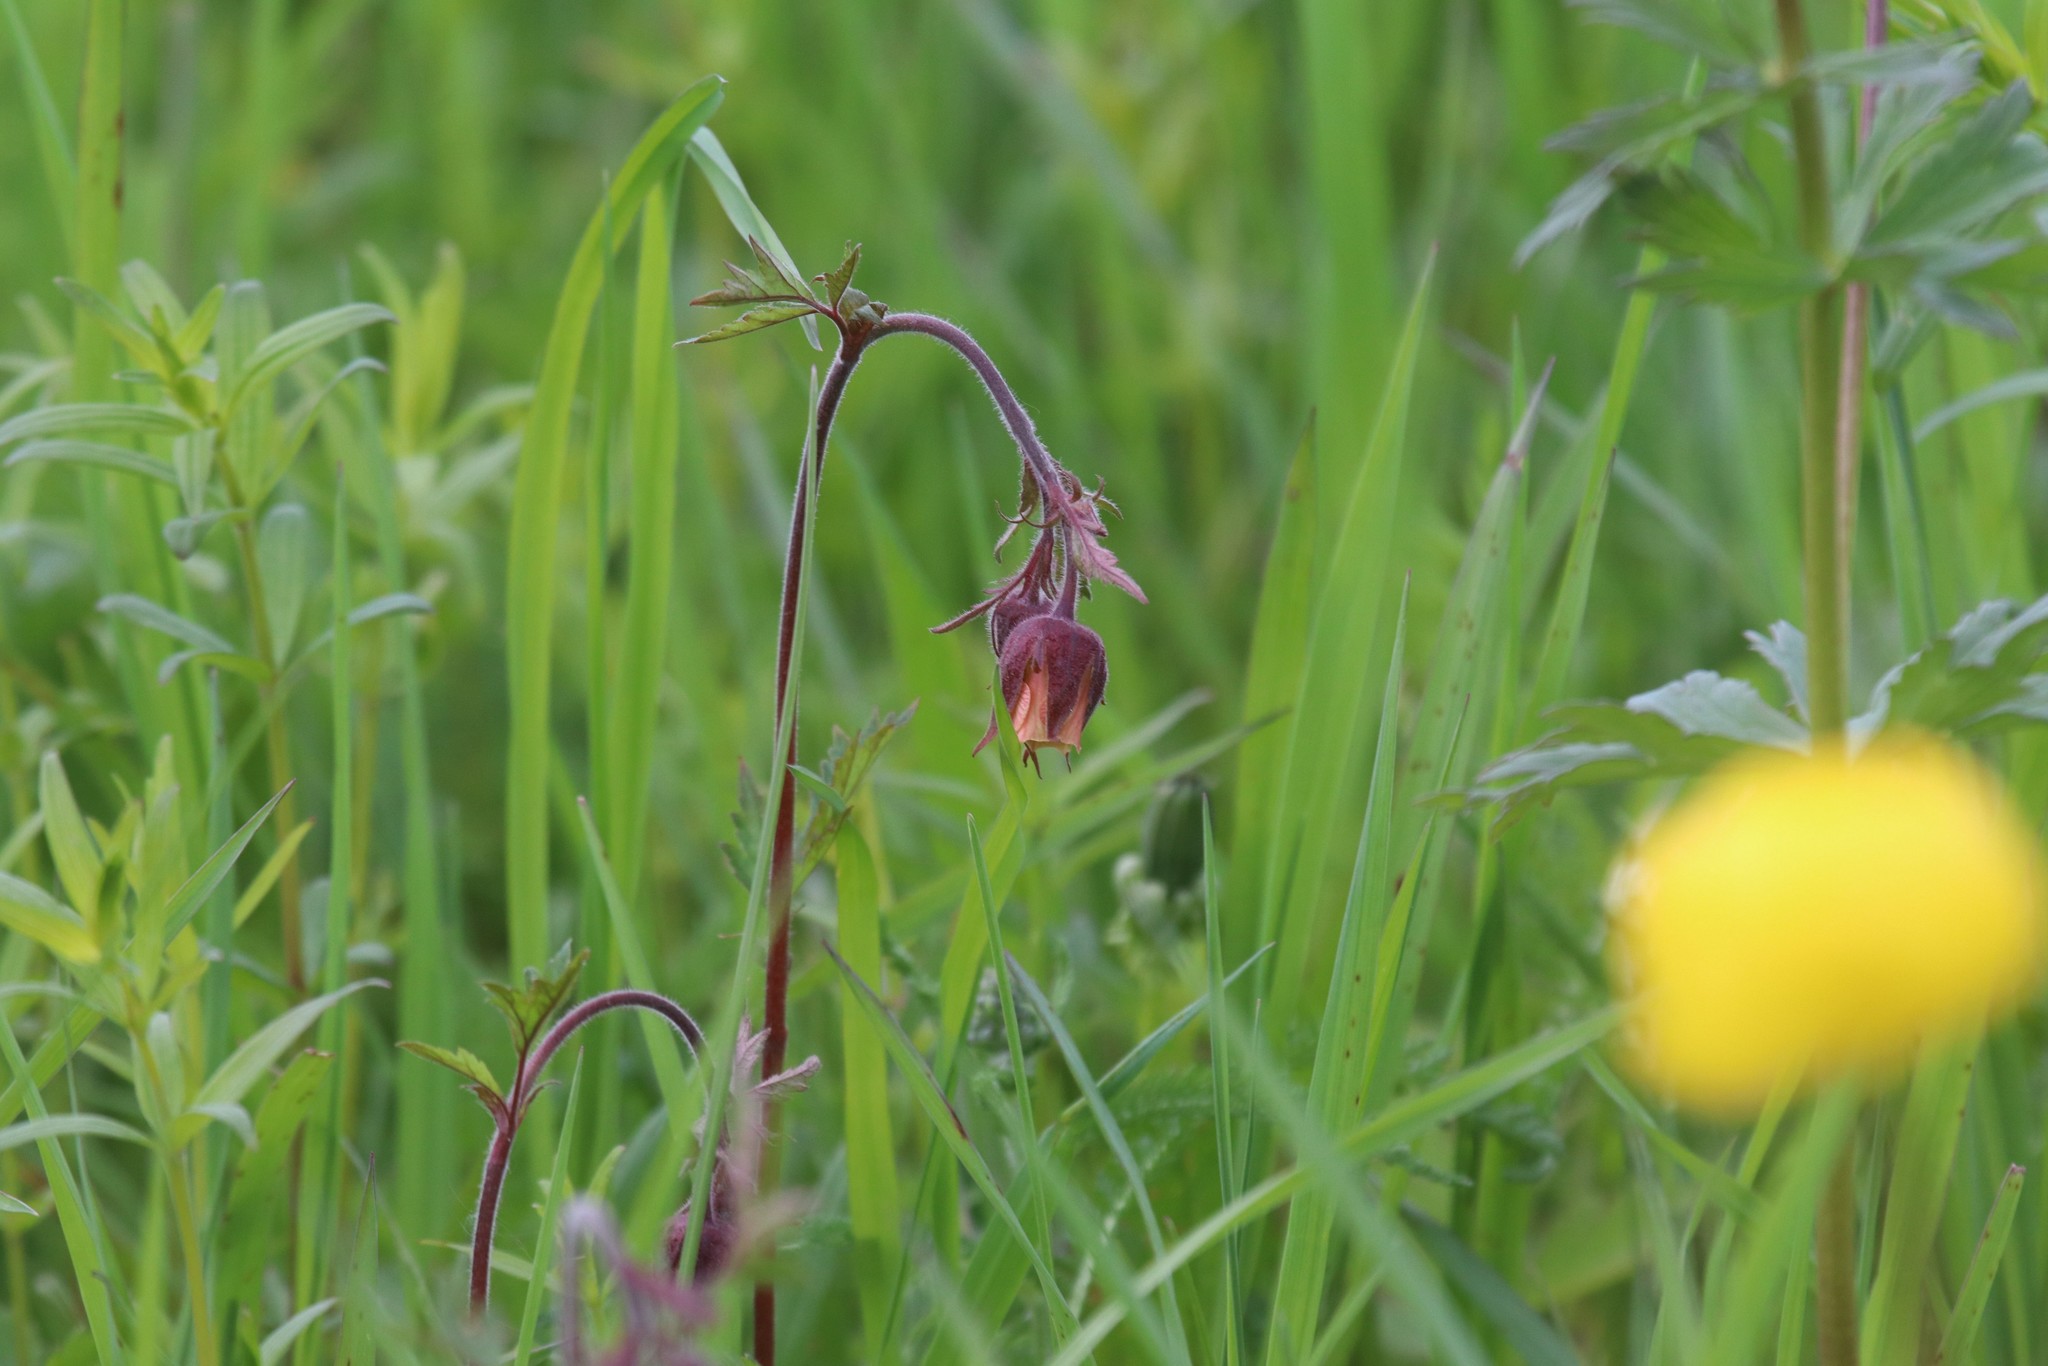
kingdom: Plantae
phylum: Tracheophyta
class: Magnoliopsida
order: Rosales
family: Rosaceae
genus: Geum
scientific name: Geum rivale
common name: Water avens
